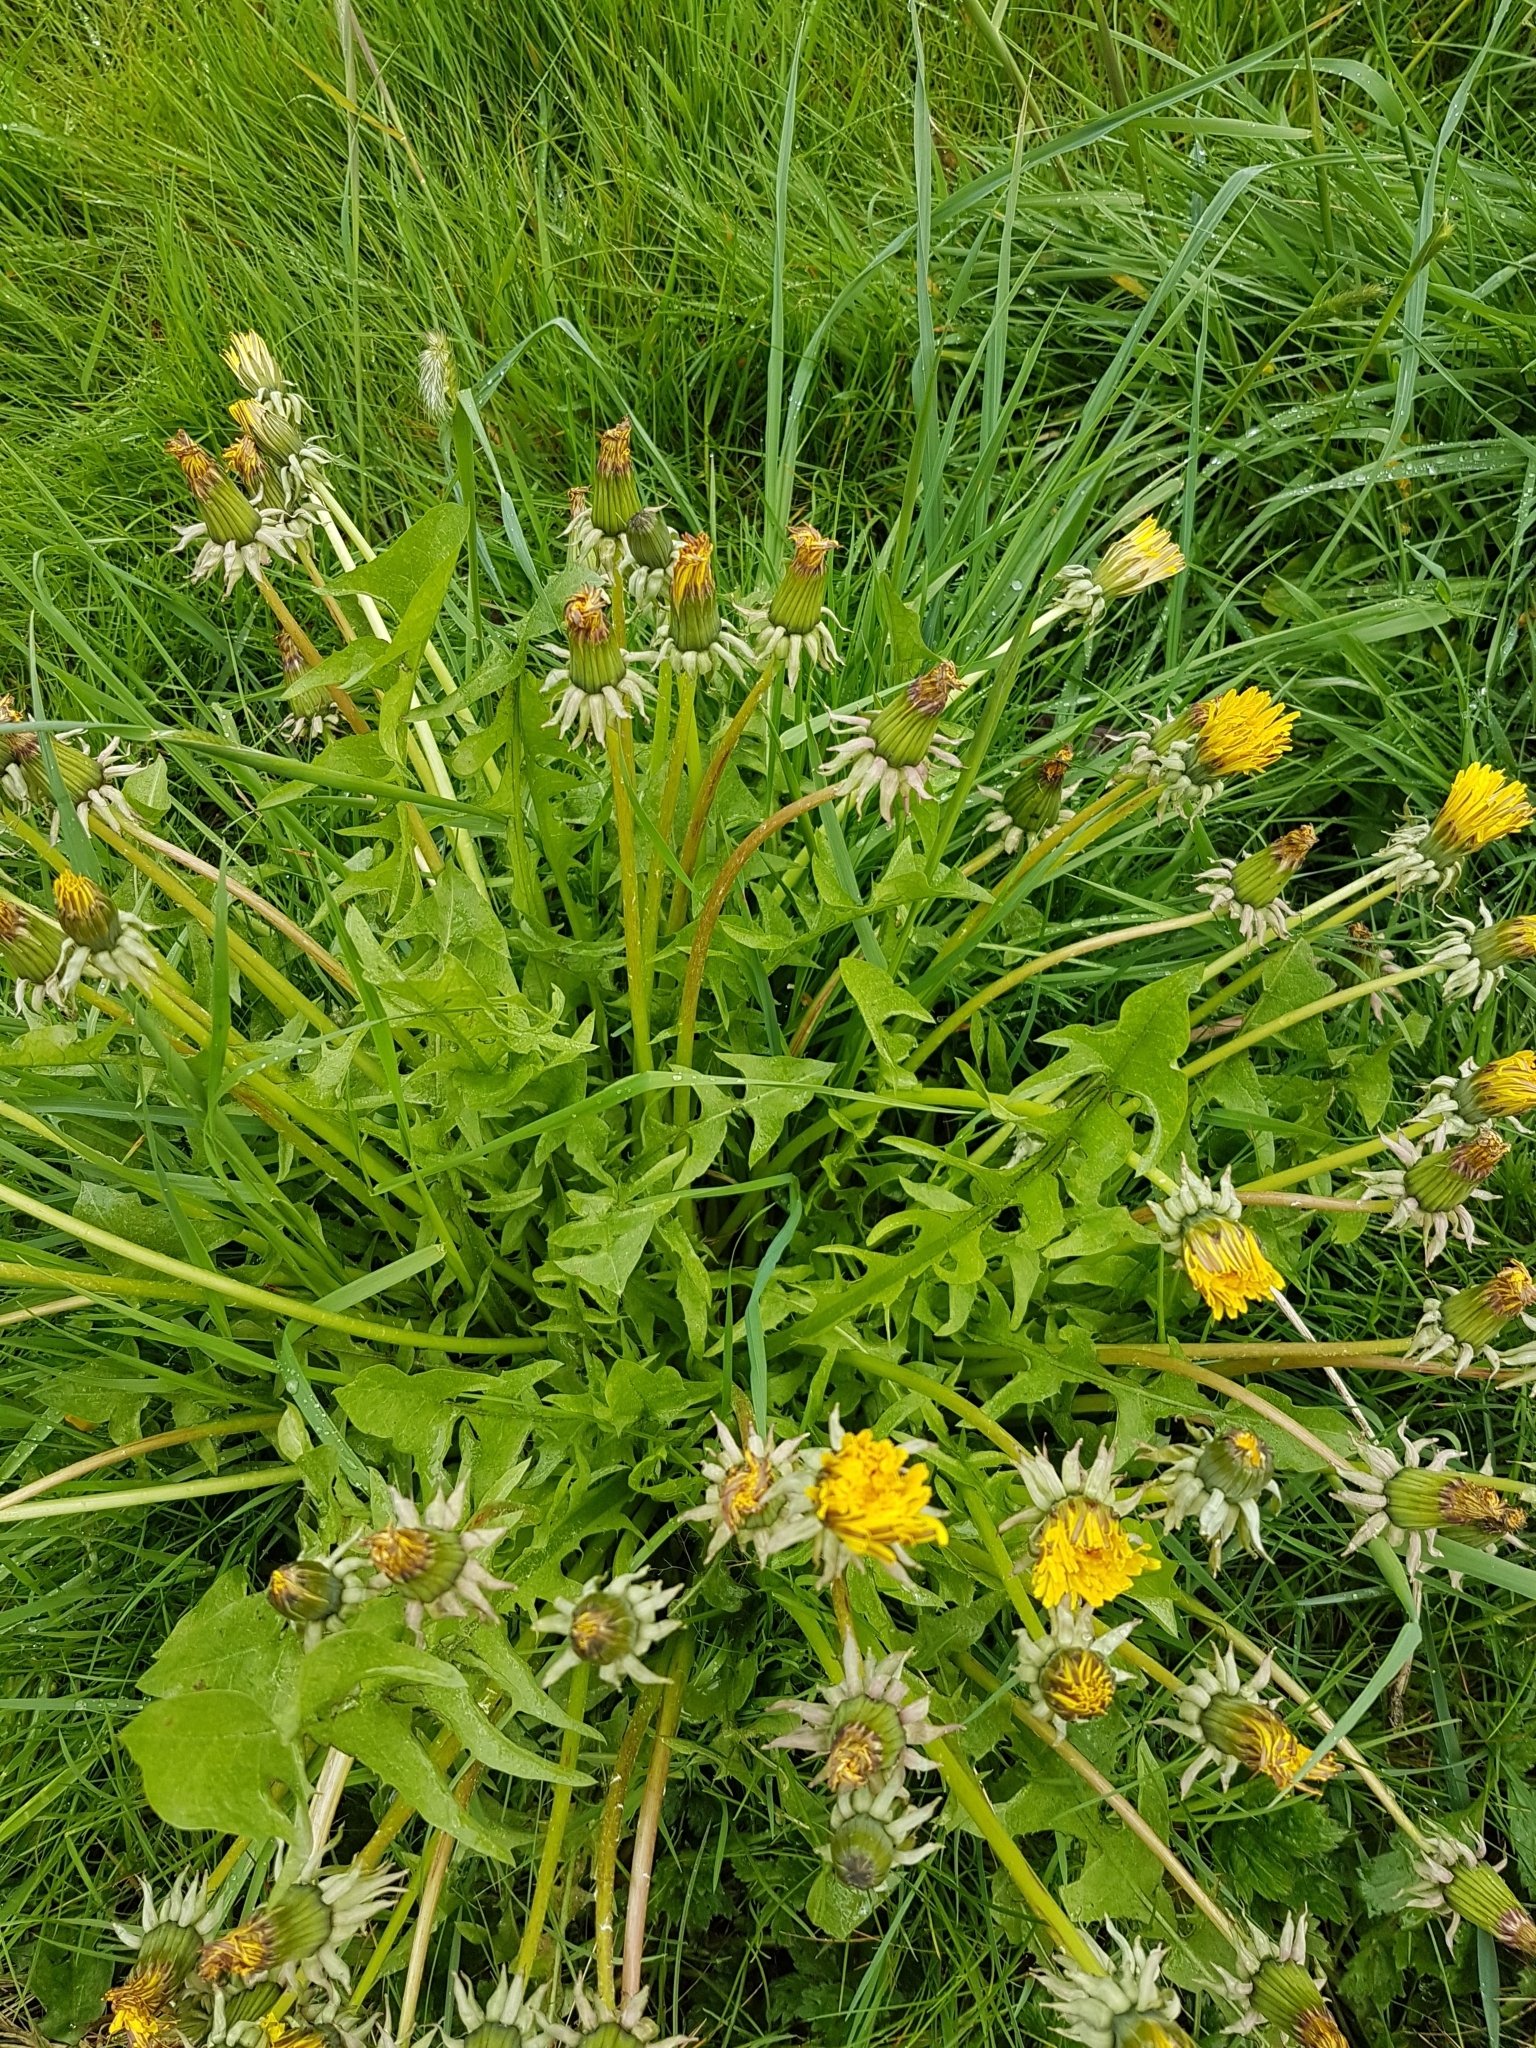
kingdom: Plantae
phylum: Tracheophyta
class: Magnoliopsida
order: Asterales
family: Asteraceae
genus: Taraxacum
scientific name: Taraxacum officinale
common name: Common dandelion
